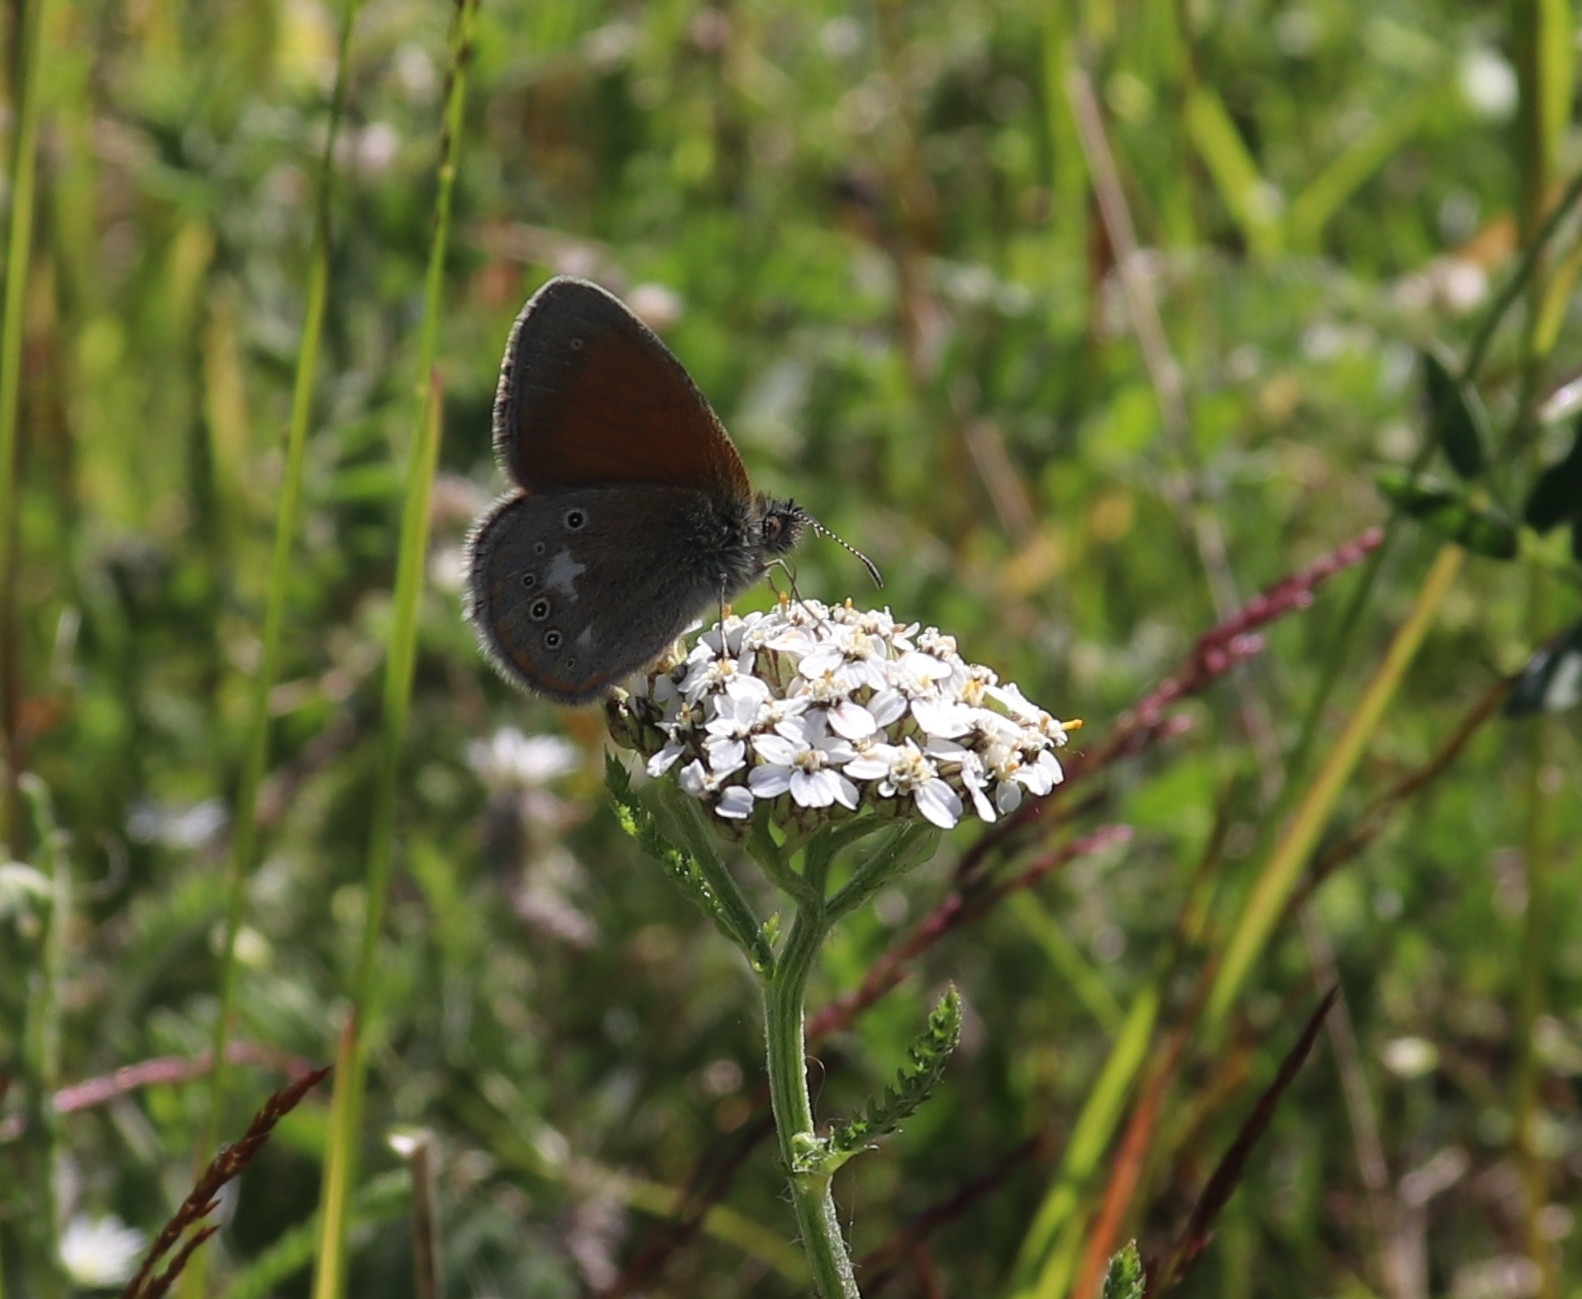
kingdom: Animalia
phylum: Arthropoda
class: Insecta
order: Lepidoptera
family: Nymphalidae
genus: Coenonympha
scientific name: Coenonympha iphis
